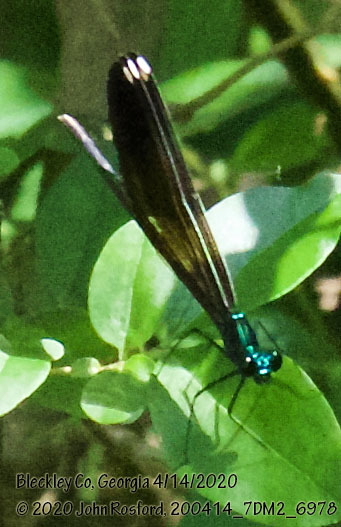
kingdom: Animalia
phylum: Arthropoda
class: Insecta
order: Odonata
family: Calopterygidae
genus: Calopteryx
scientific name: Calopteryx maculata
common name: Ebony jewelwing
